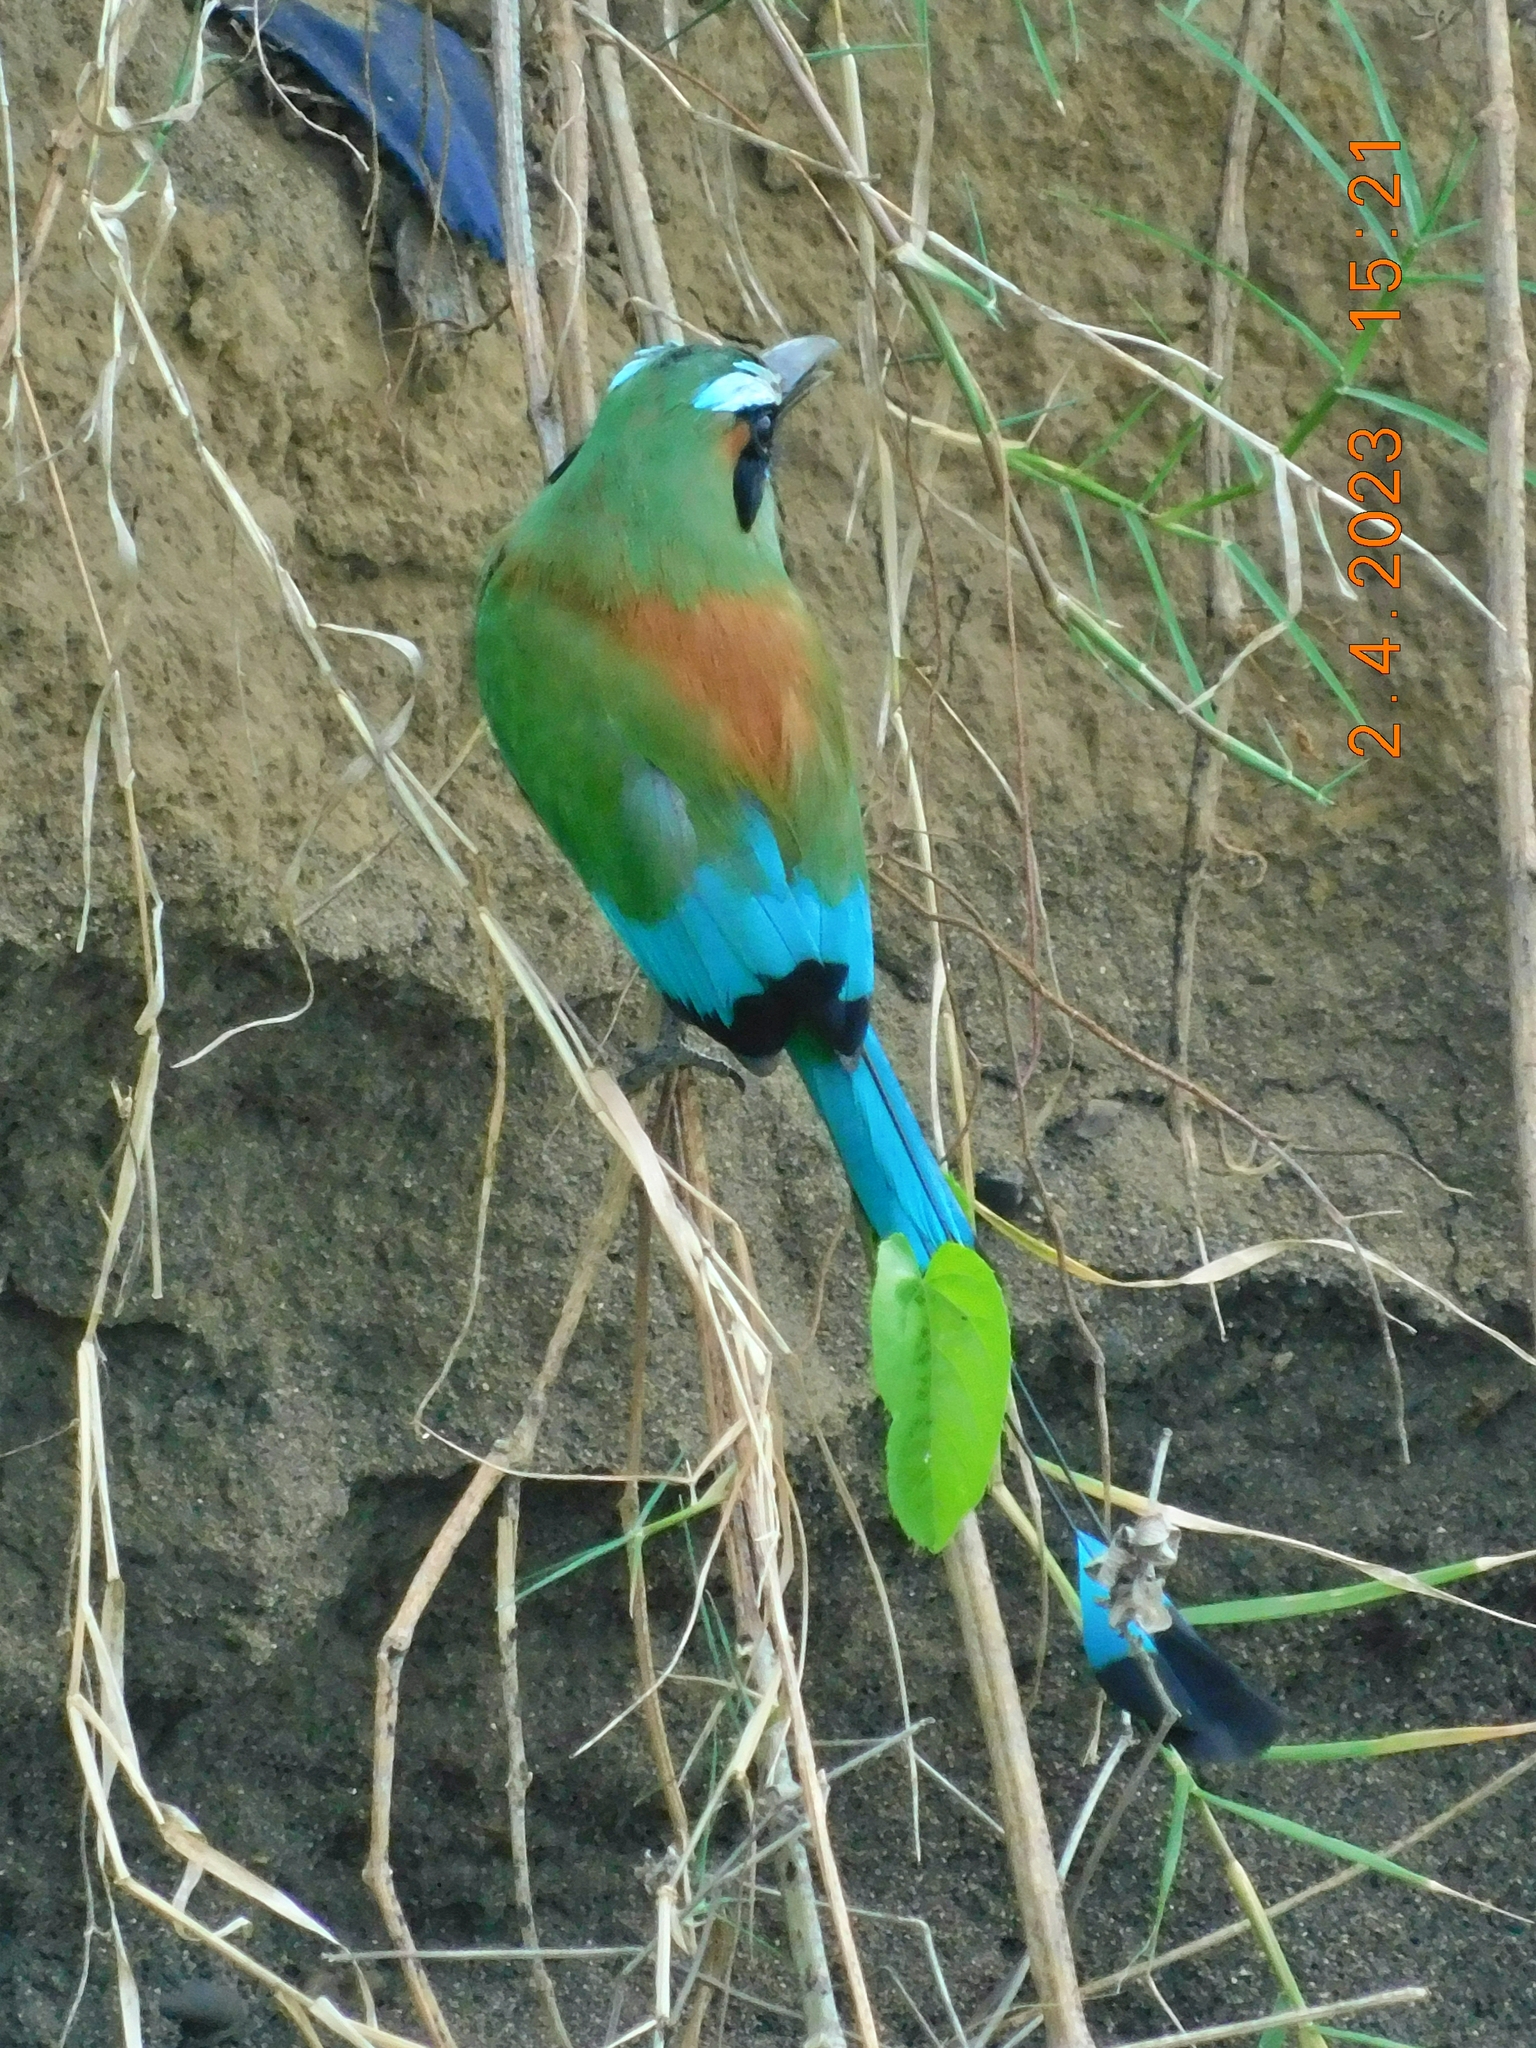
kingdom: Animalia
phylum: Chordata
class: Aves
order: Coraciiformes
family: Momotidae
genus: Eumomota
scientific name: Eumomota superciliosa
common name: Turquoise-browed motmot
